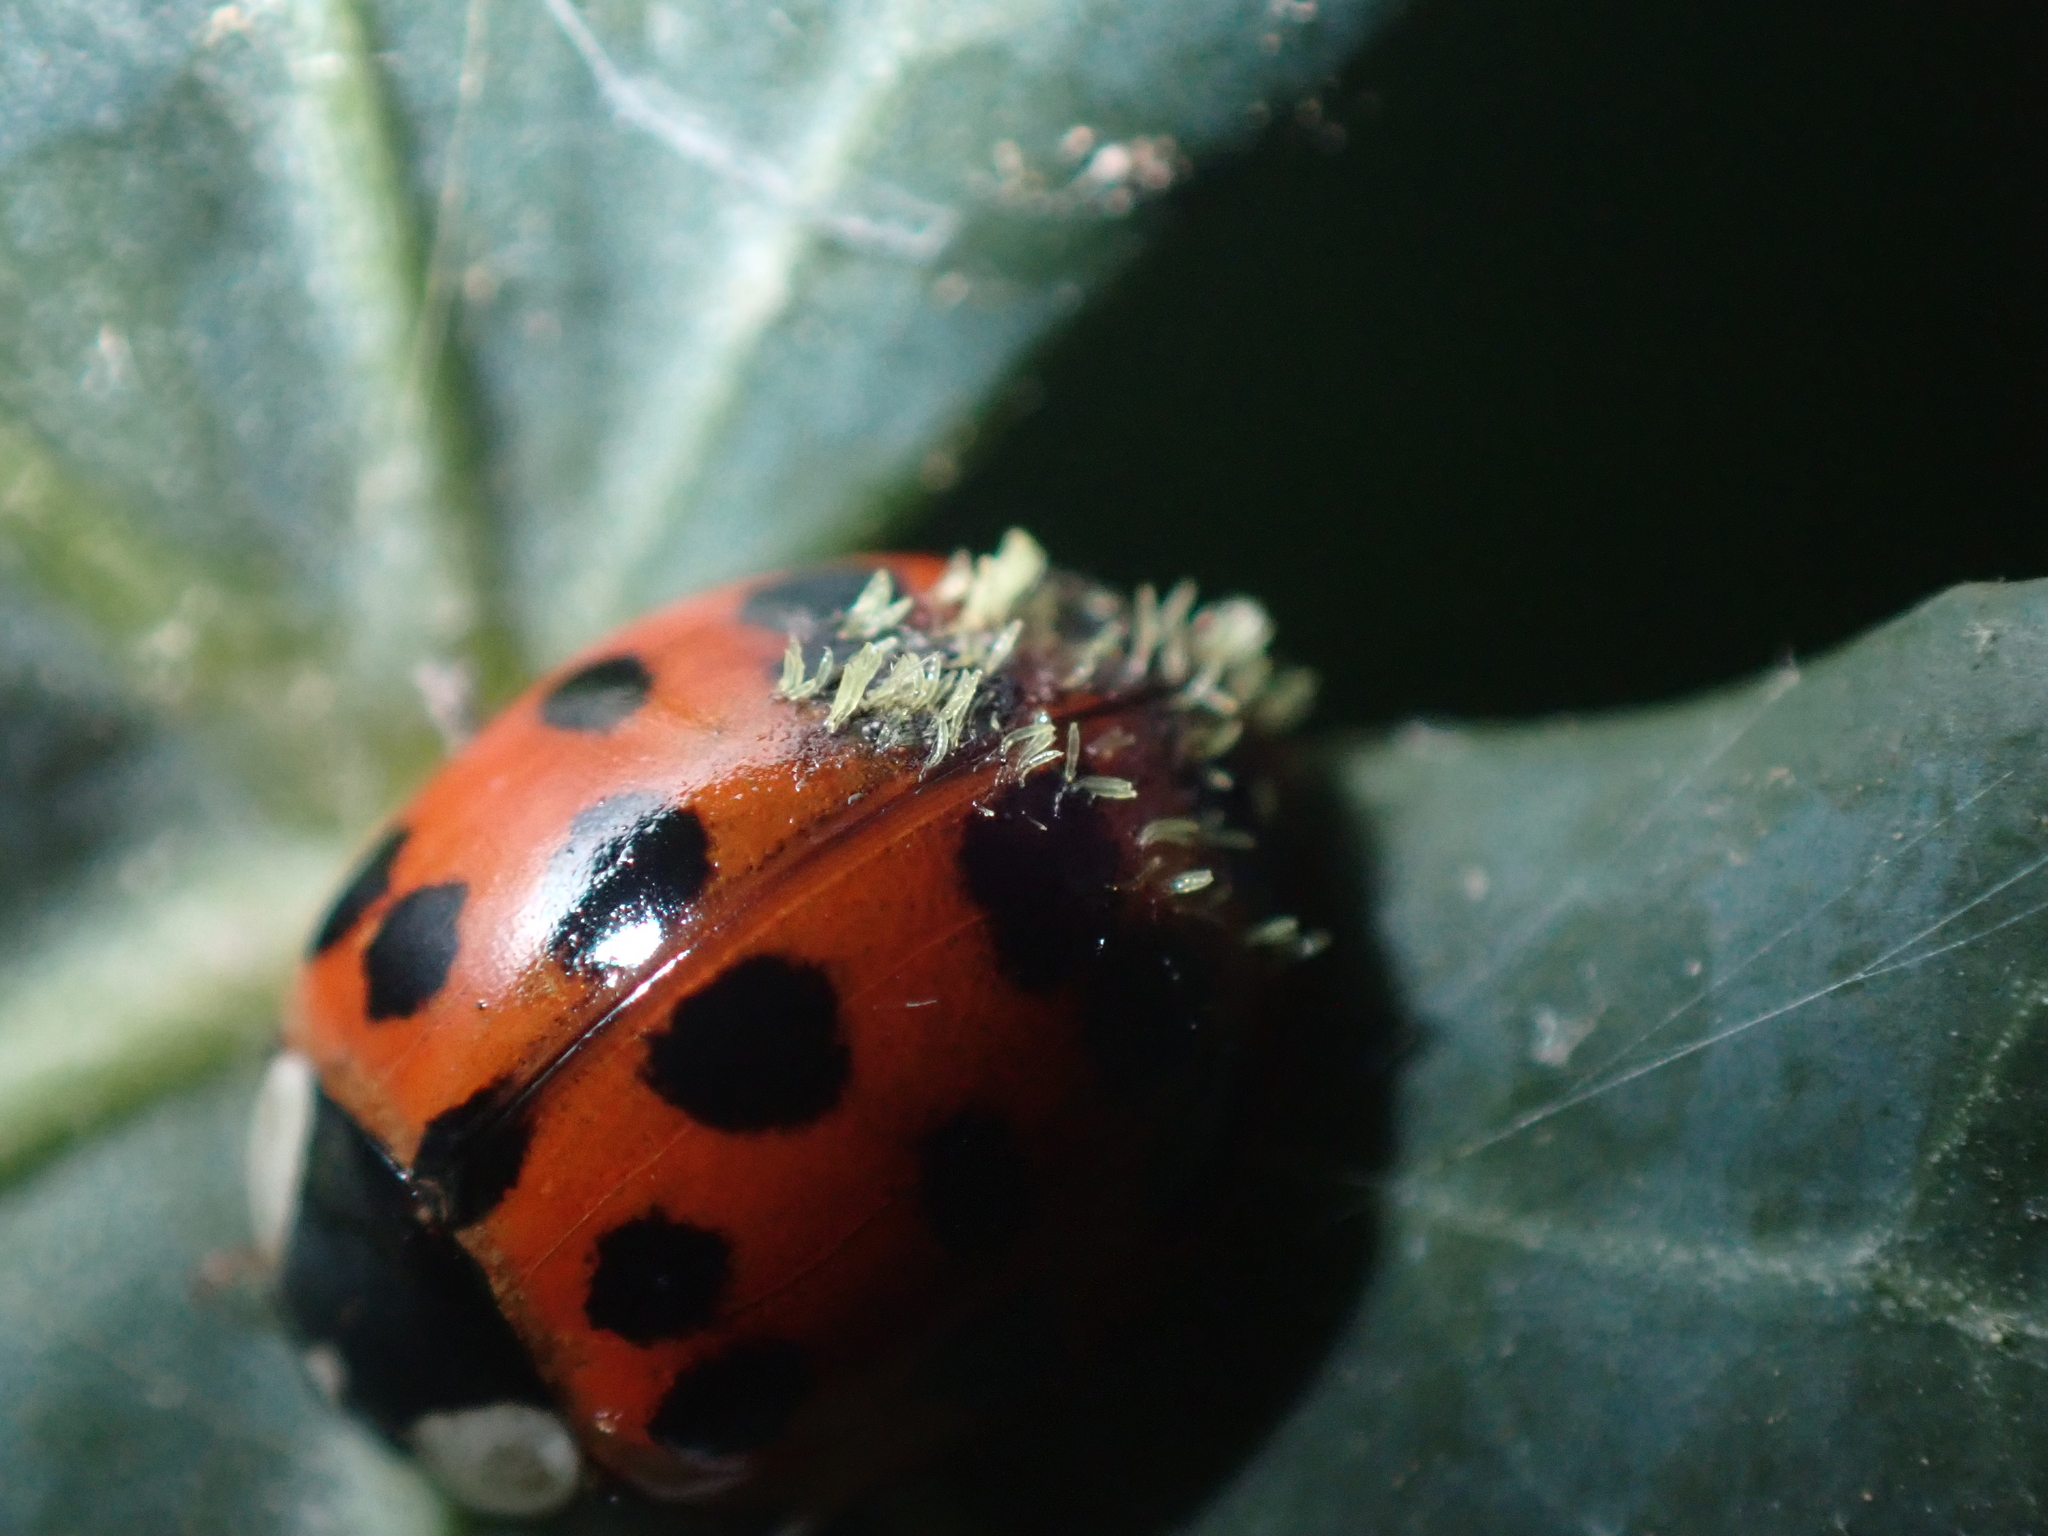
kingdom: Animalia
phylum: Arthropoda
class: Insecta
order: Coleoptera
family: Coccinellidae
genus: Harmonia
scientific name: Harmonia axyridis
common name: Harlequin ladybird
